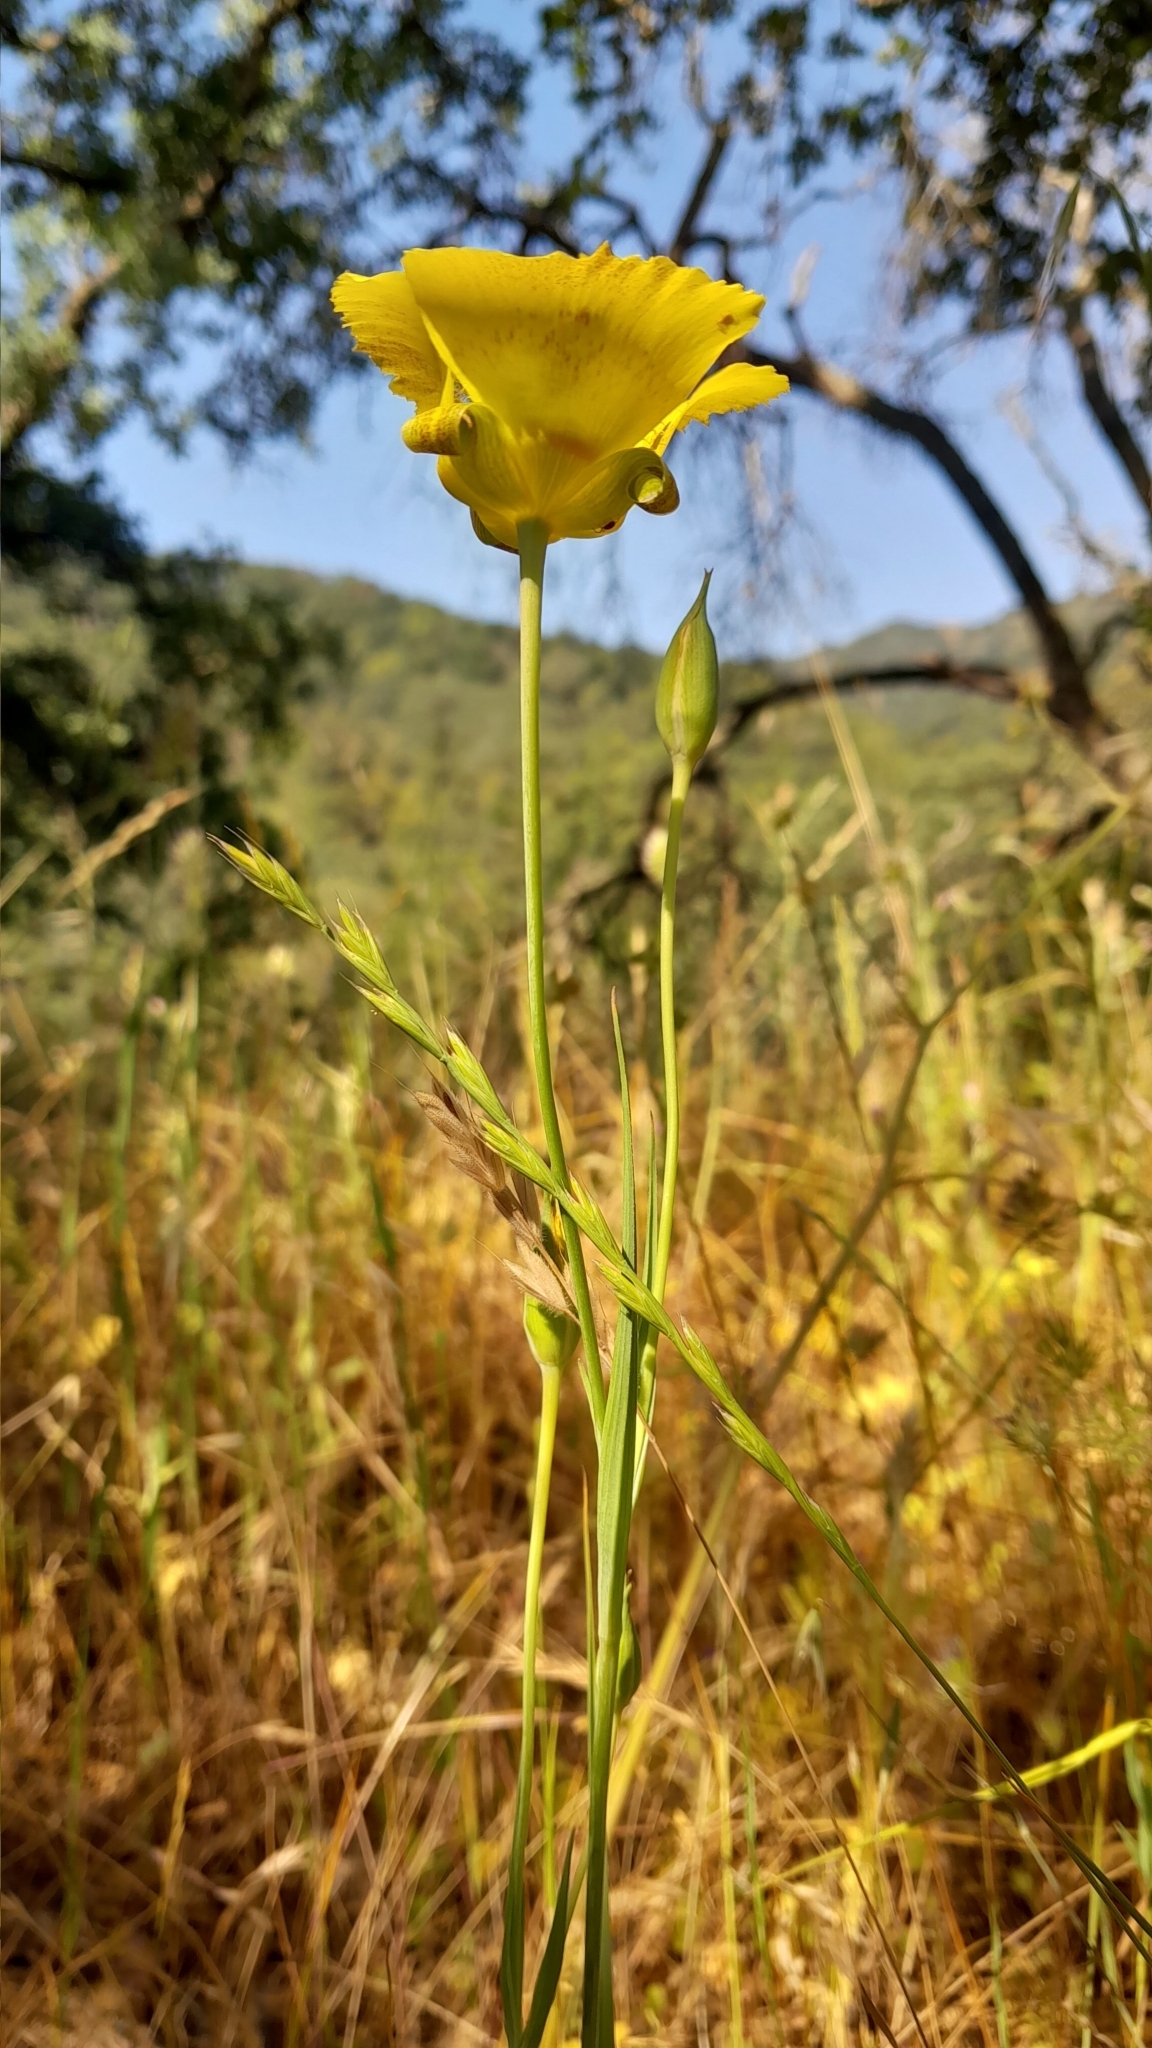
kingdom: Plantae
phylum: Tracheophyta
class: Liliopsida
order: Liliales
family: Liliaceae
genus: Calochortus
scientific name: Calochortus luteus
